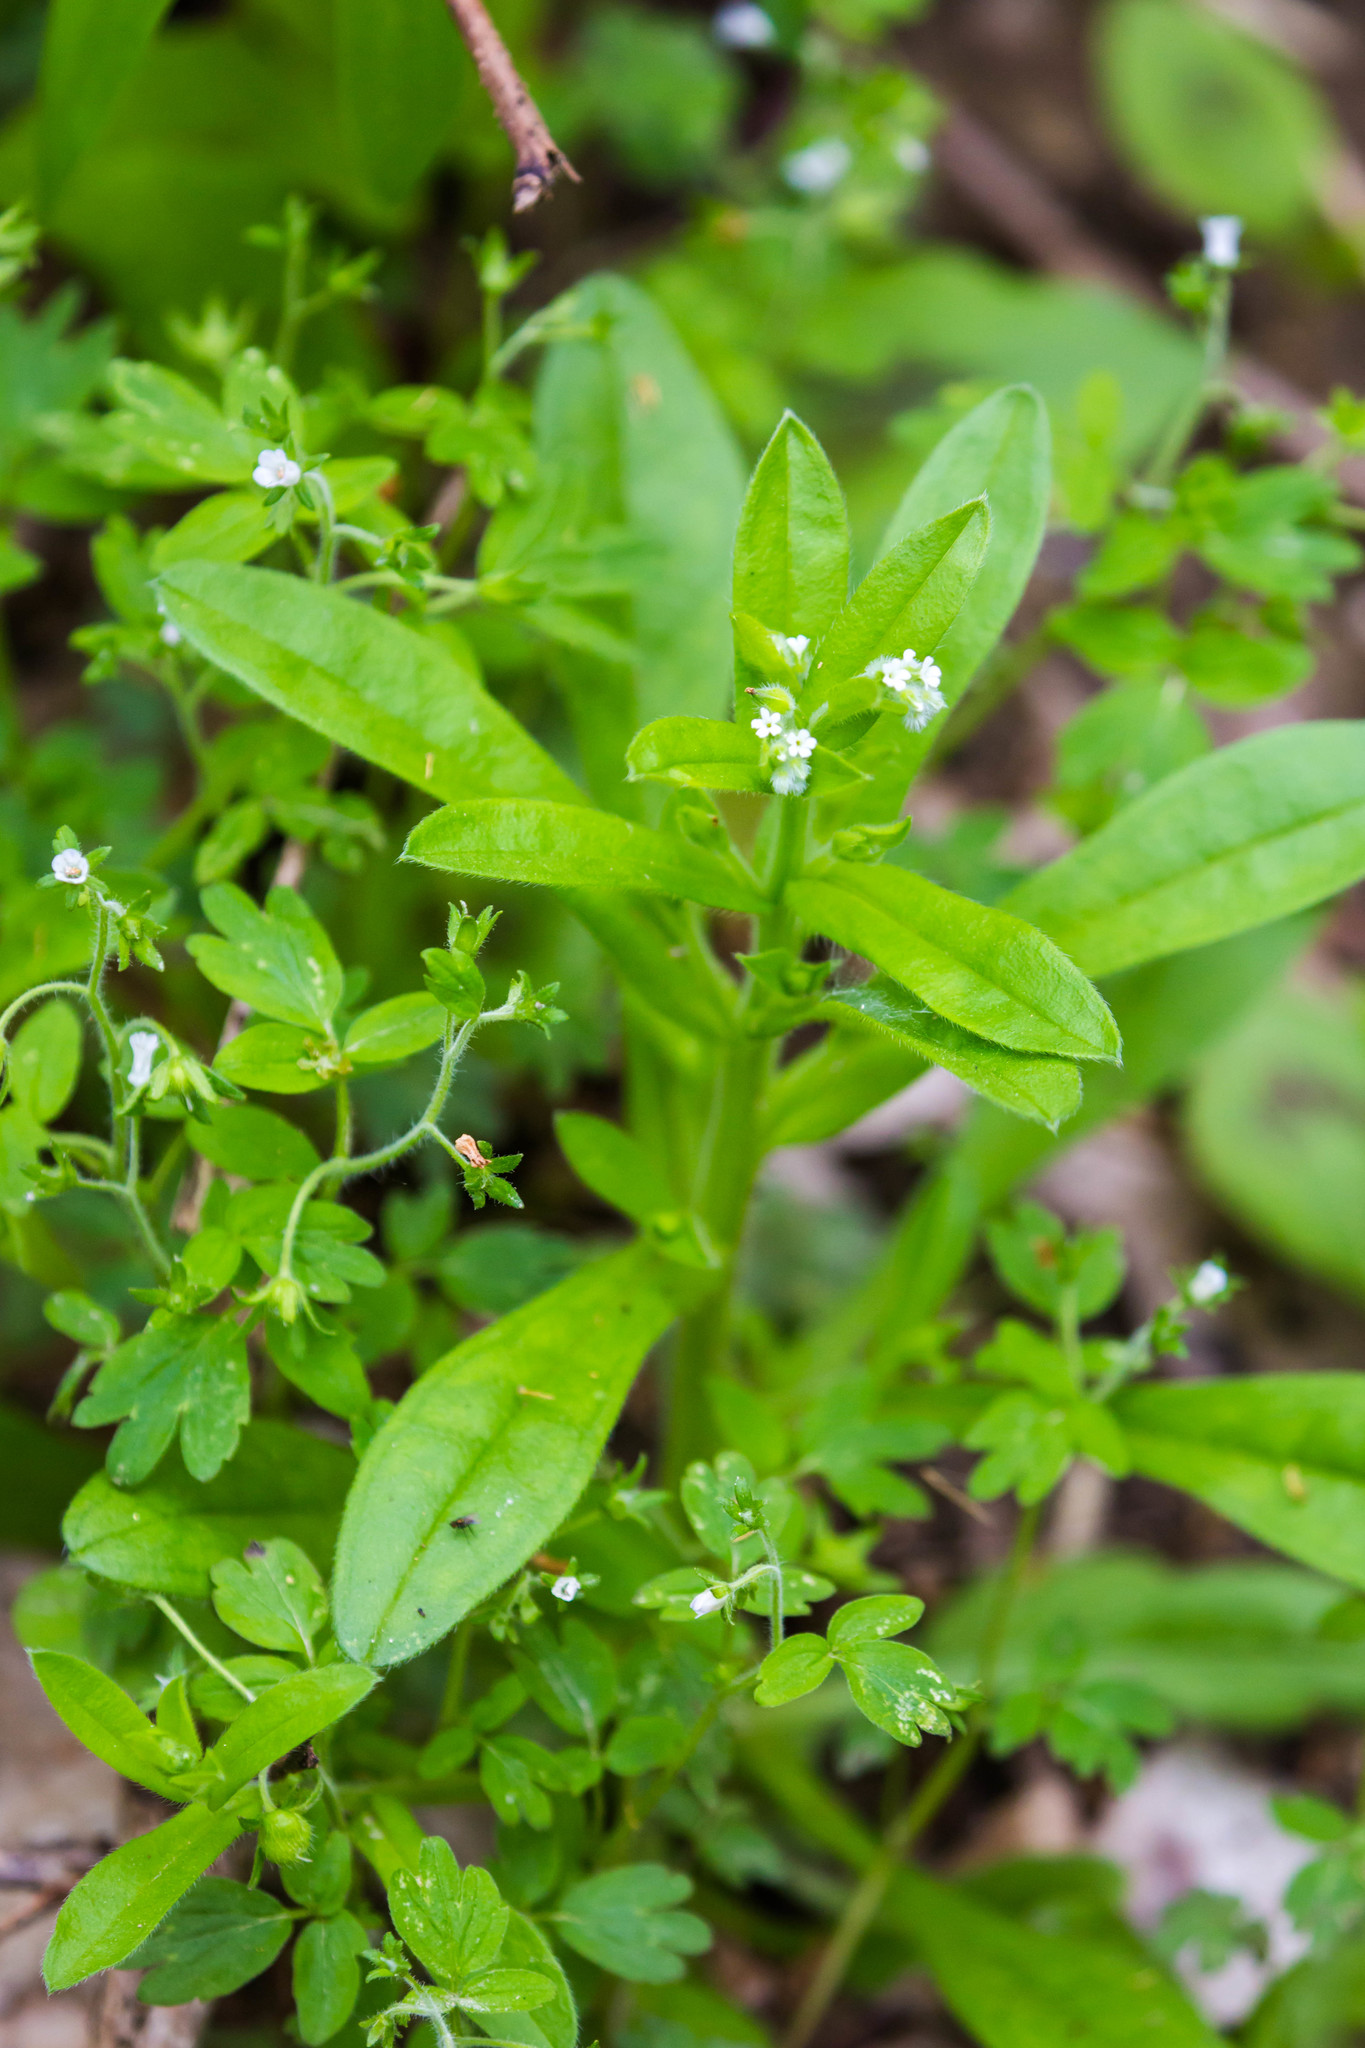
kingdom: Plantae
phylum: Tracheophyta
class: Magnoliopsida
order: Boraginales
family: Boraginaceae
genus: Myosotis
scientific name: Myosotis macrosperma
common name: Large-seed forget-me-not
